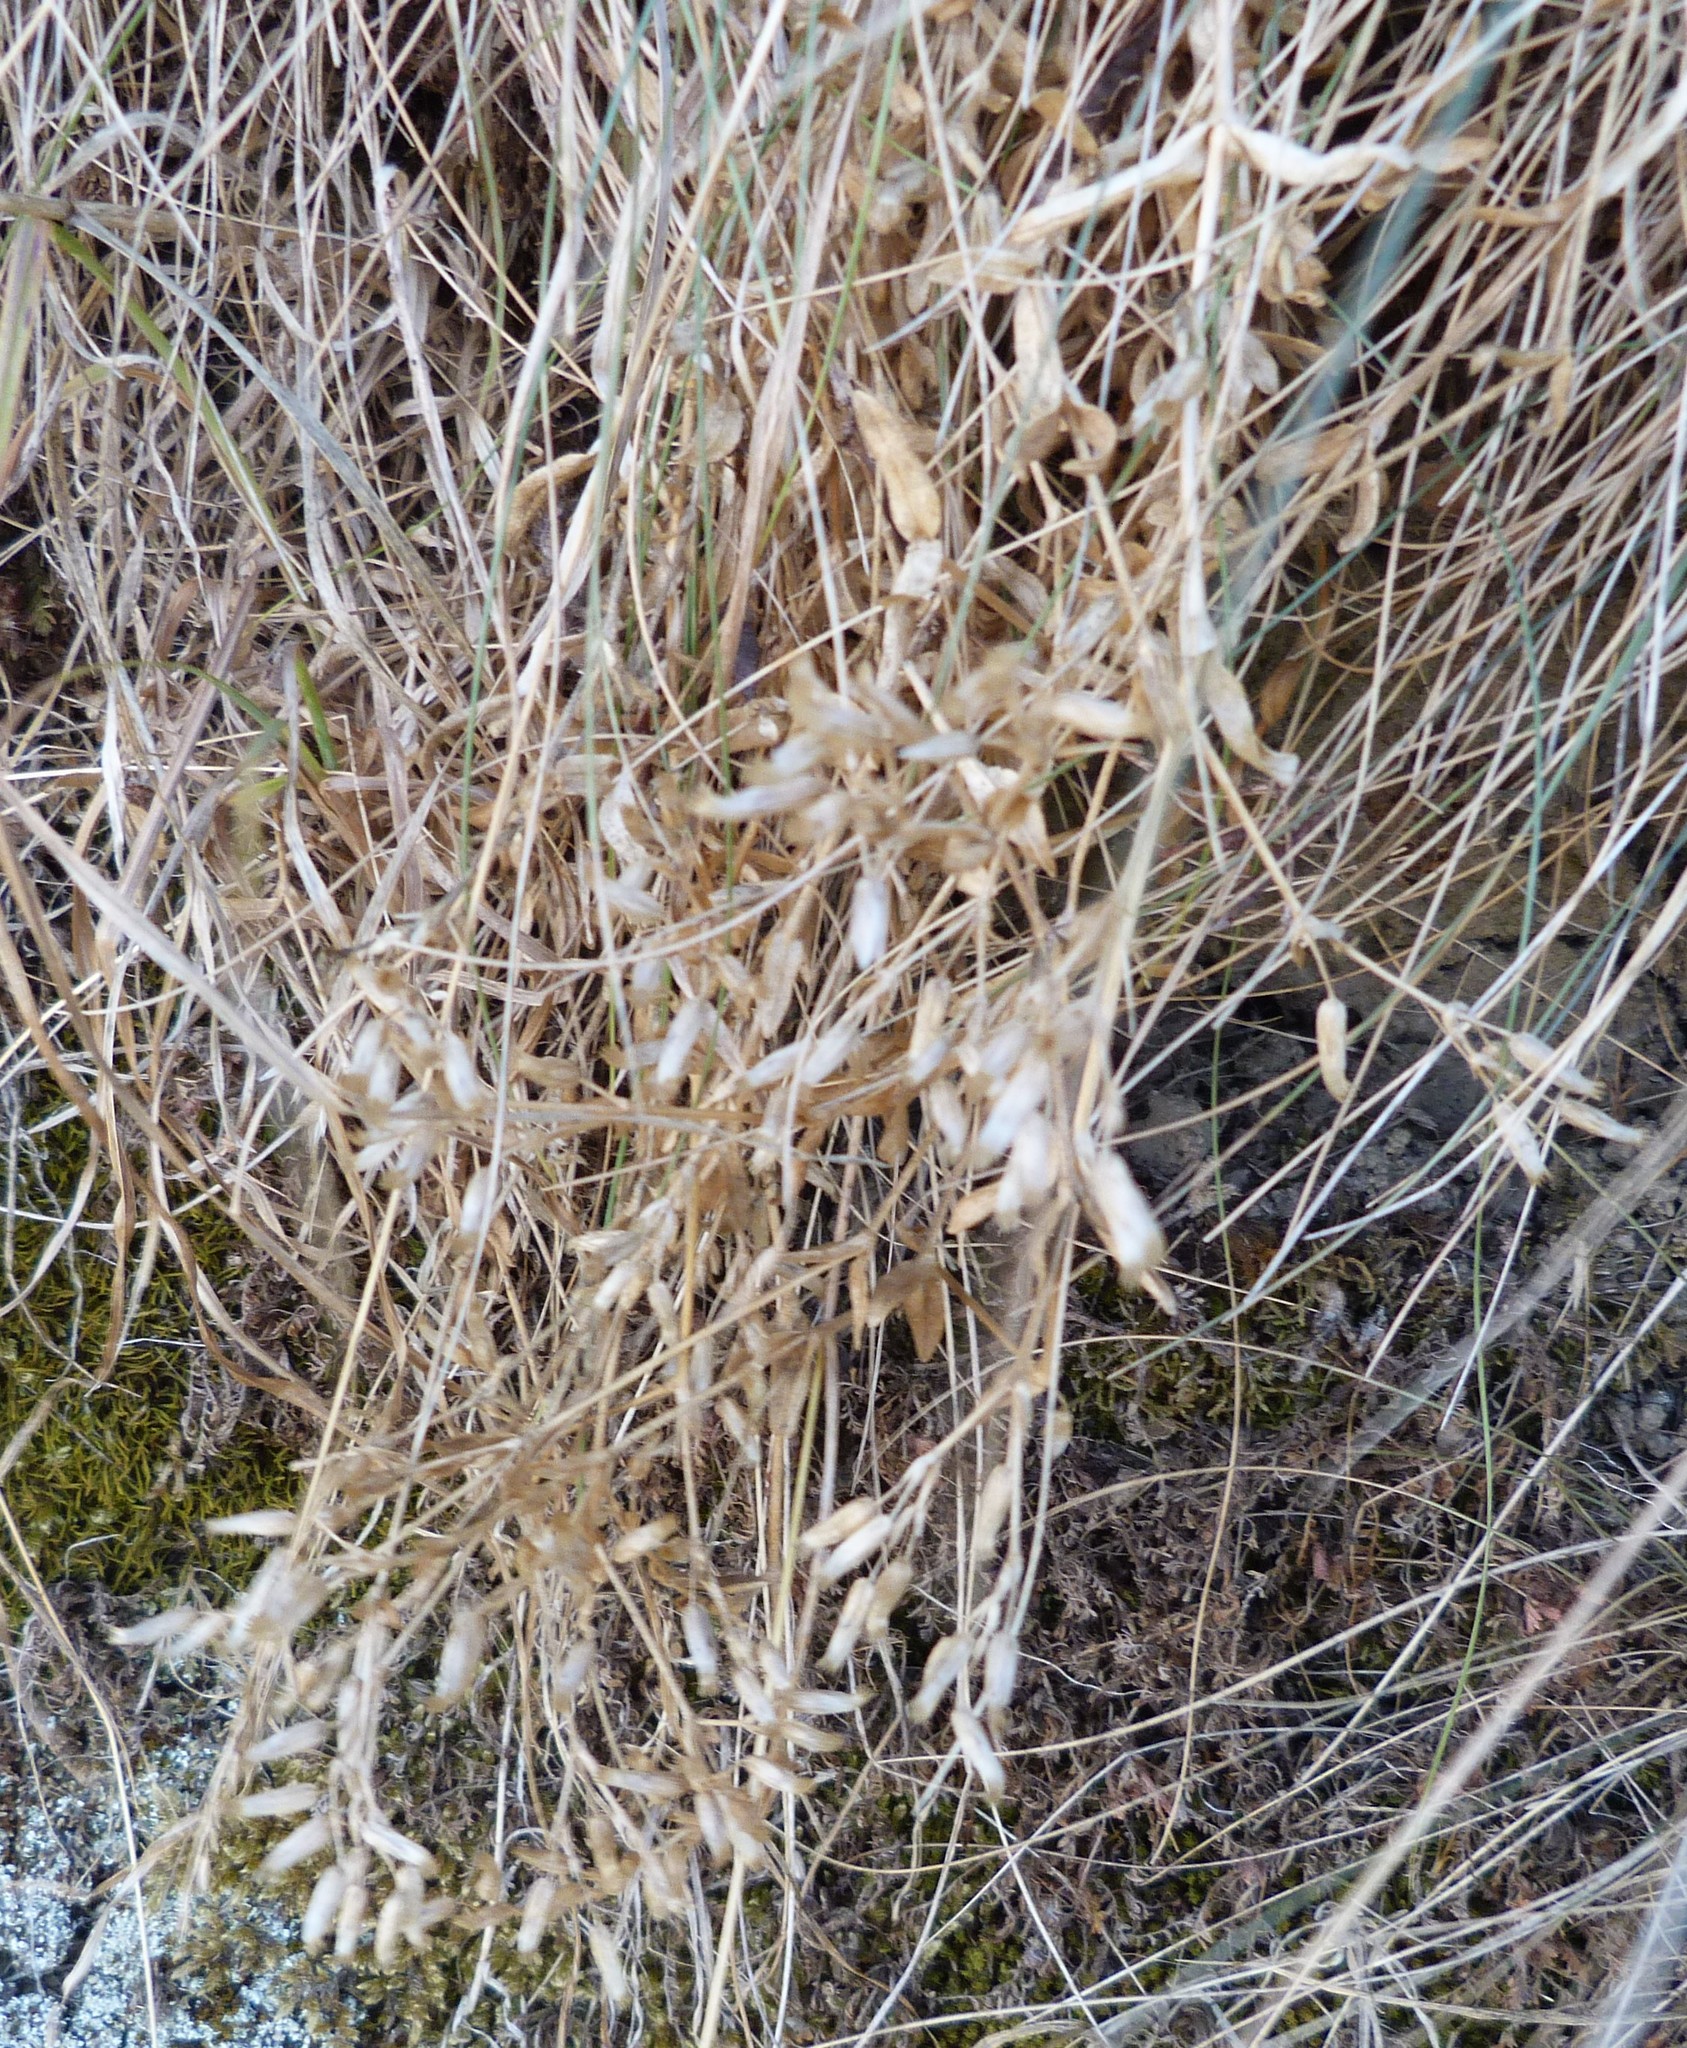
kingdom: Plantae
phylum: Tracheophyta
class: Magnoliopsida
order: Caryophyllales
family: Caryophyllaceae
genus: Cerastium
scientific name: Cerastium fontanum
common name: Common mouse-ear
